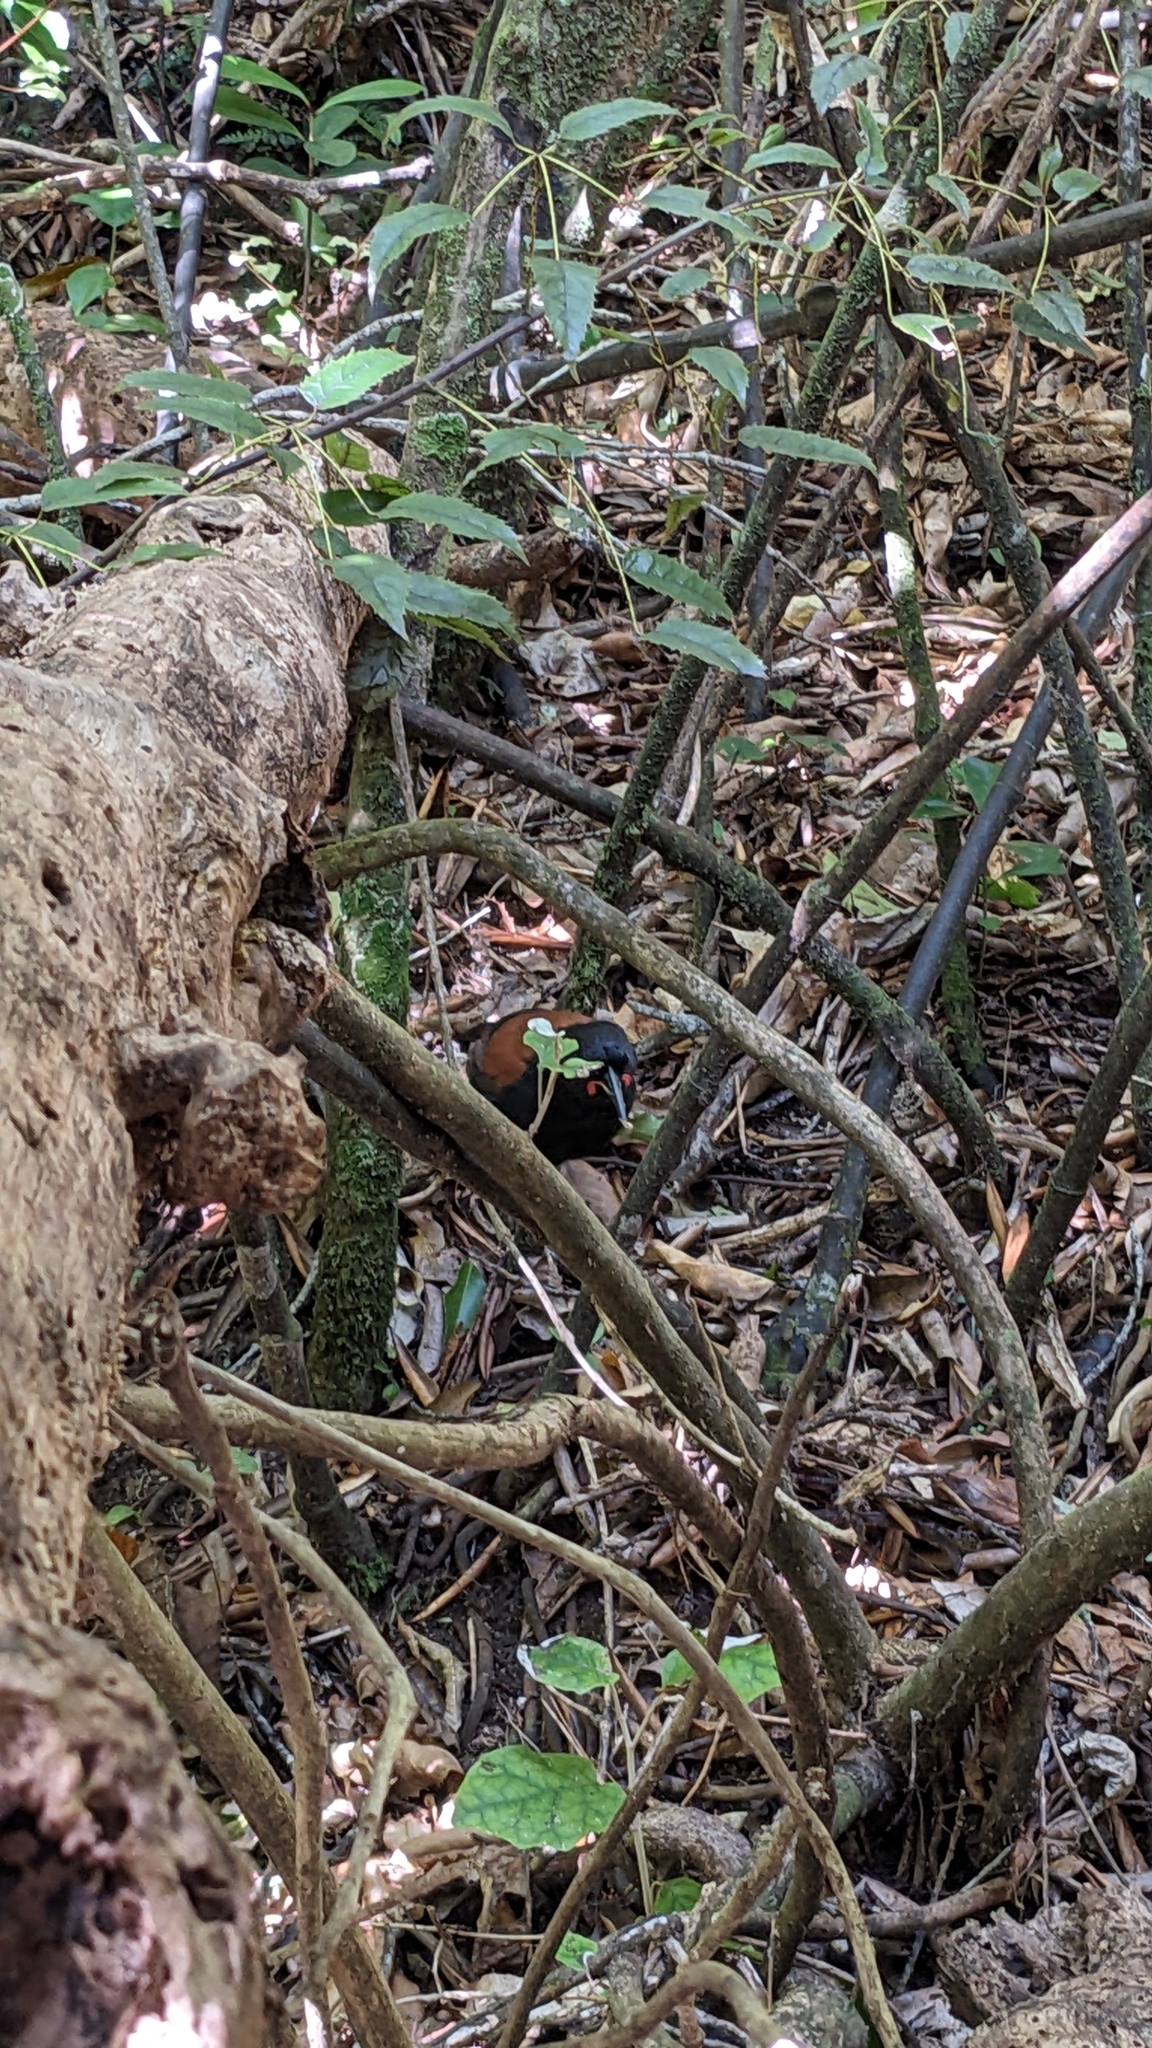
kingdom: Animalia
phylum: Chordata
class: Aves
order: Passeriformes
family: Callaeatidae
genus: Philesturnus
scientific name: Philesturnus carunculatus
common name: South island saddleback
